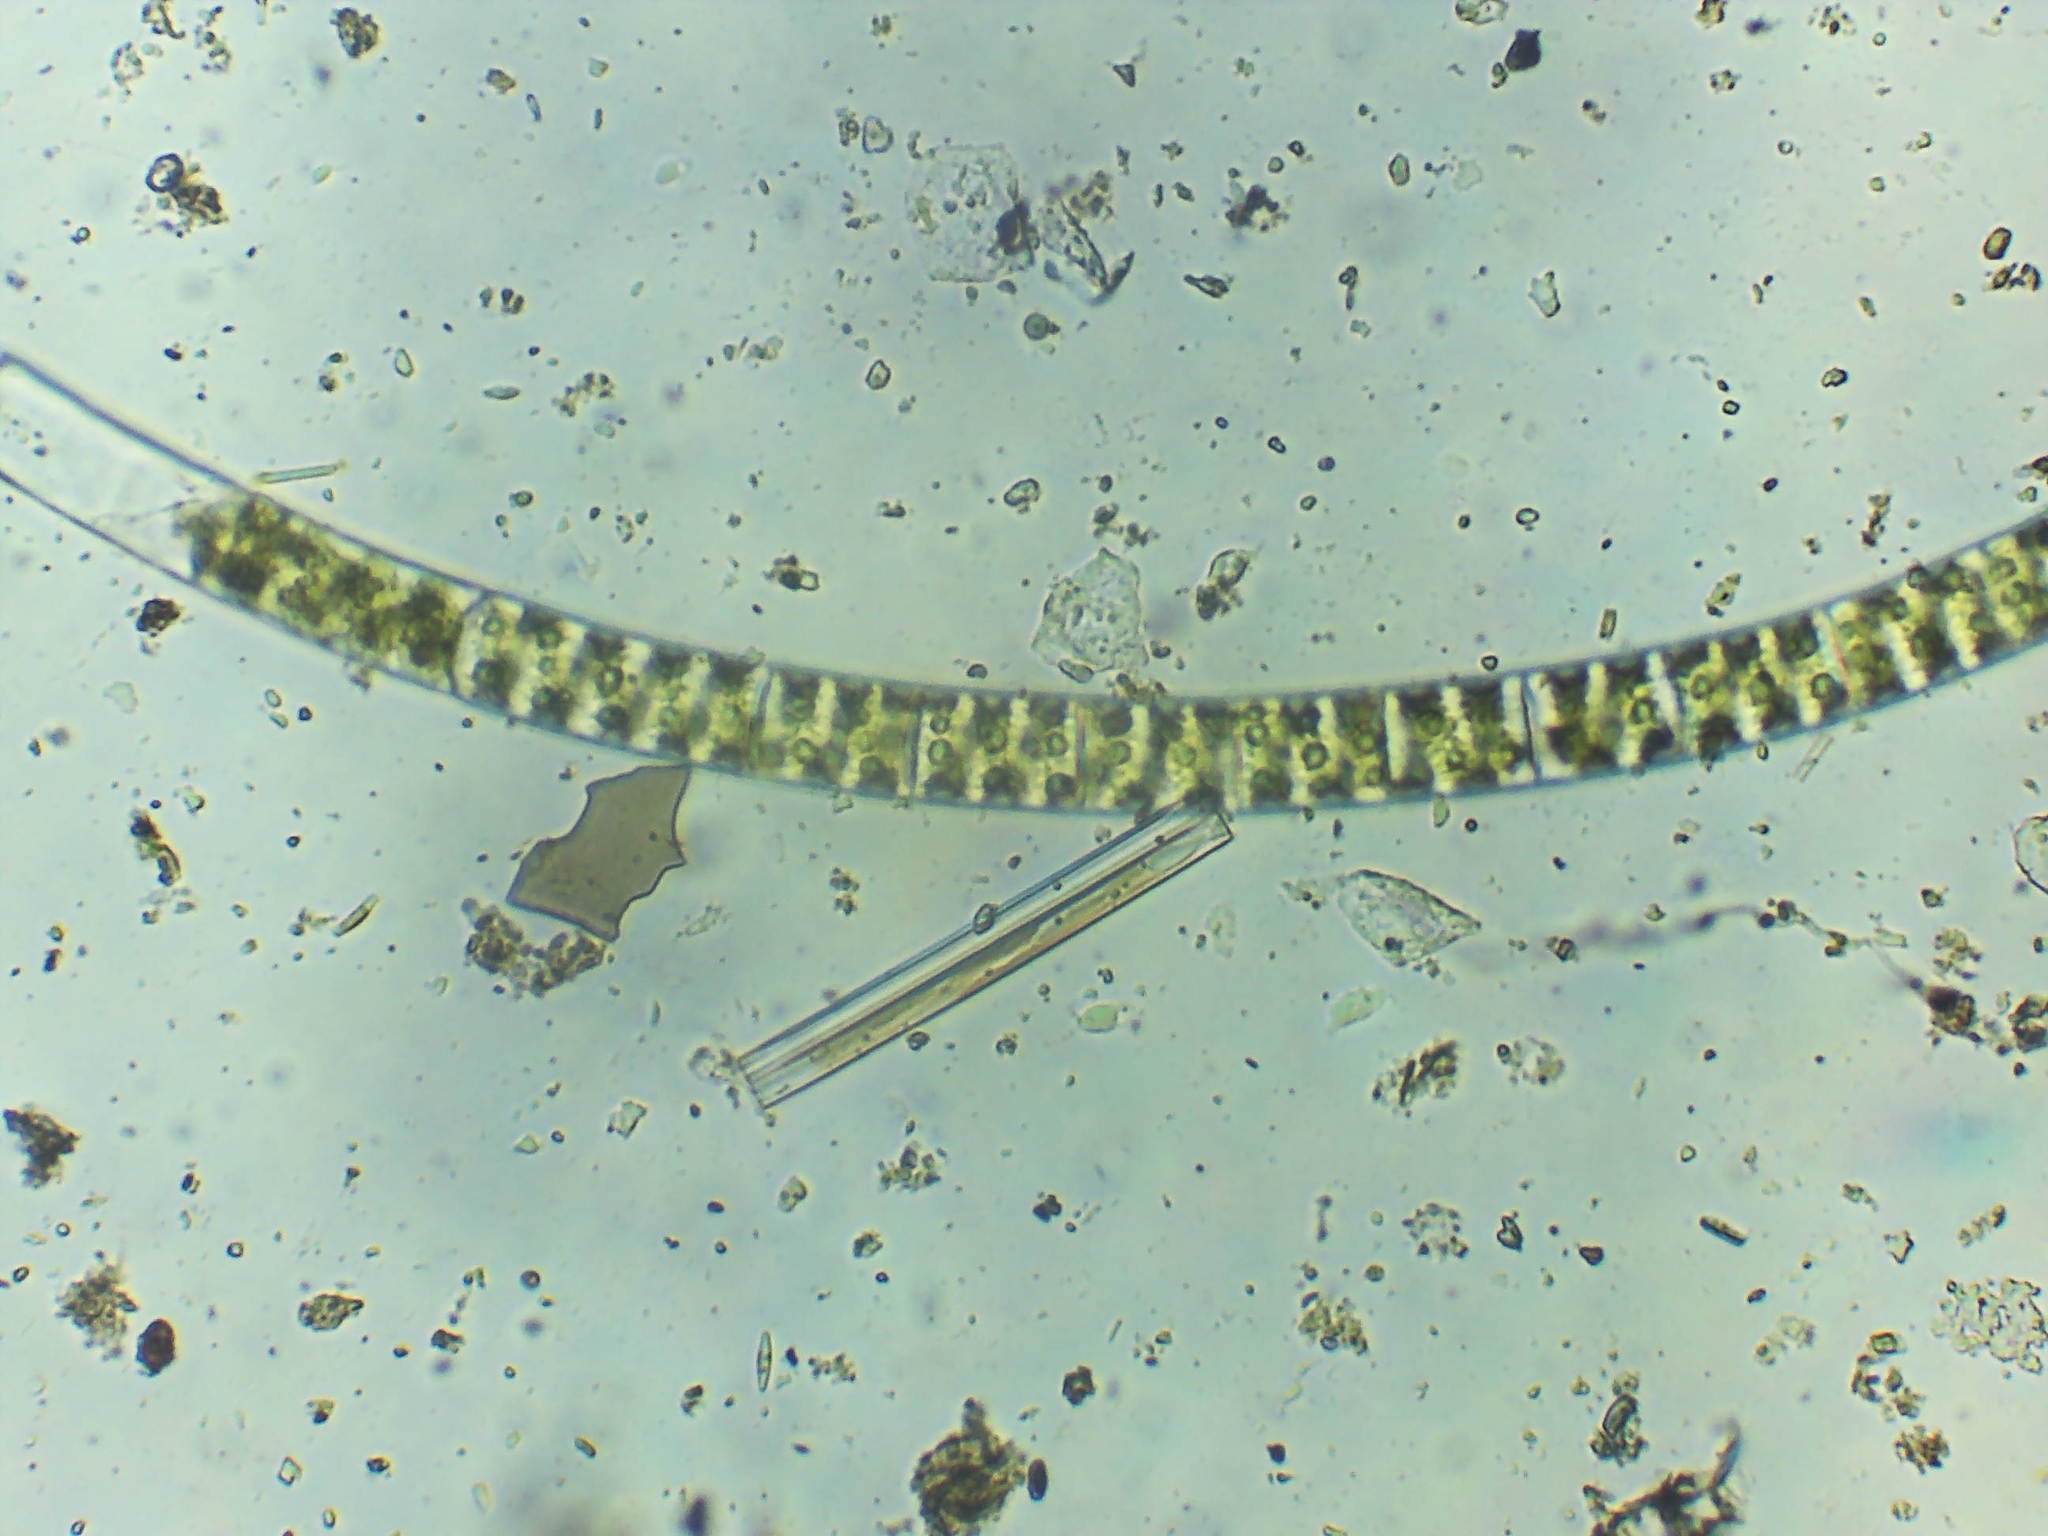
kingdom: Plantae
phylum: Charophyta
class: Zygnematophyceae
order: Zygnematales
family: Zygnemataceae
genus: Spirogyra
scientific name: Spirogyra
